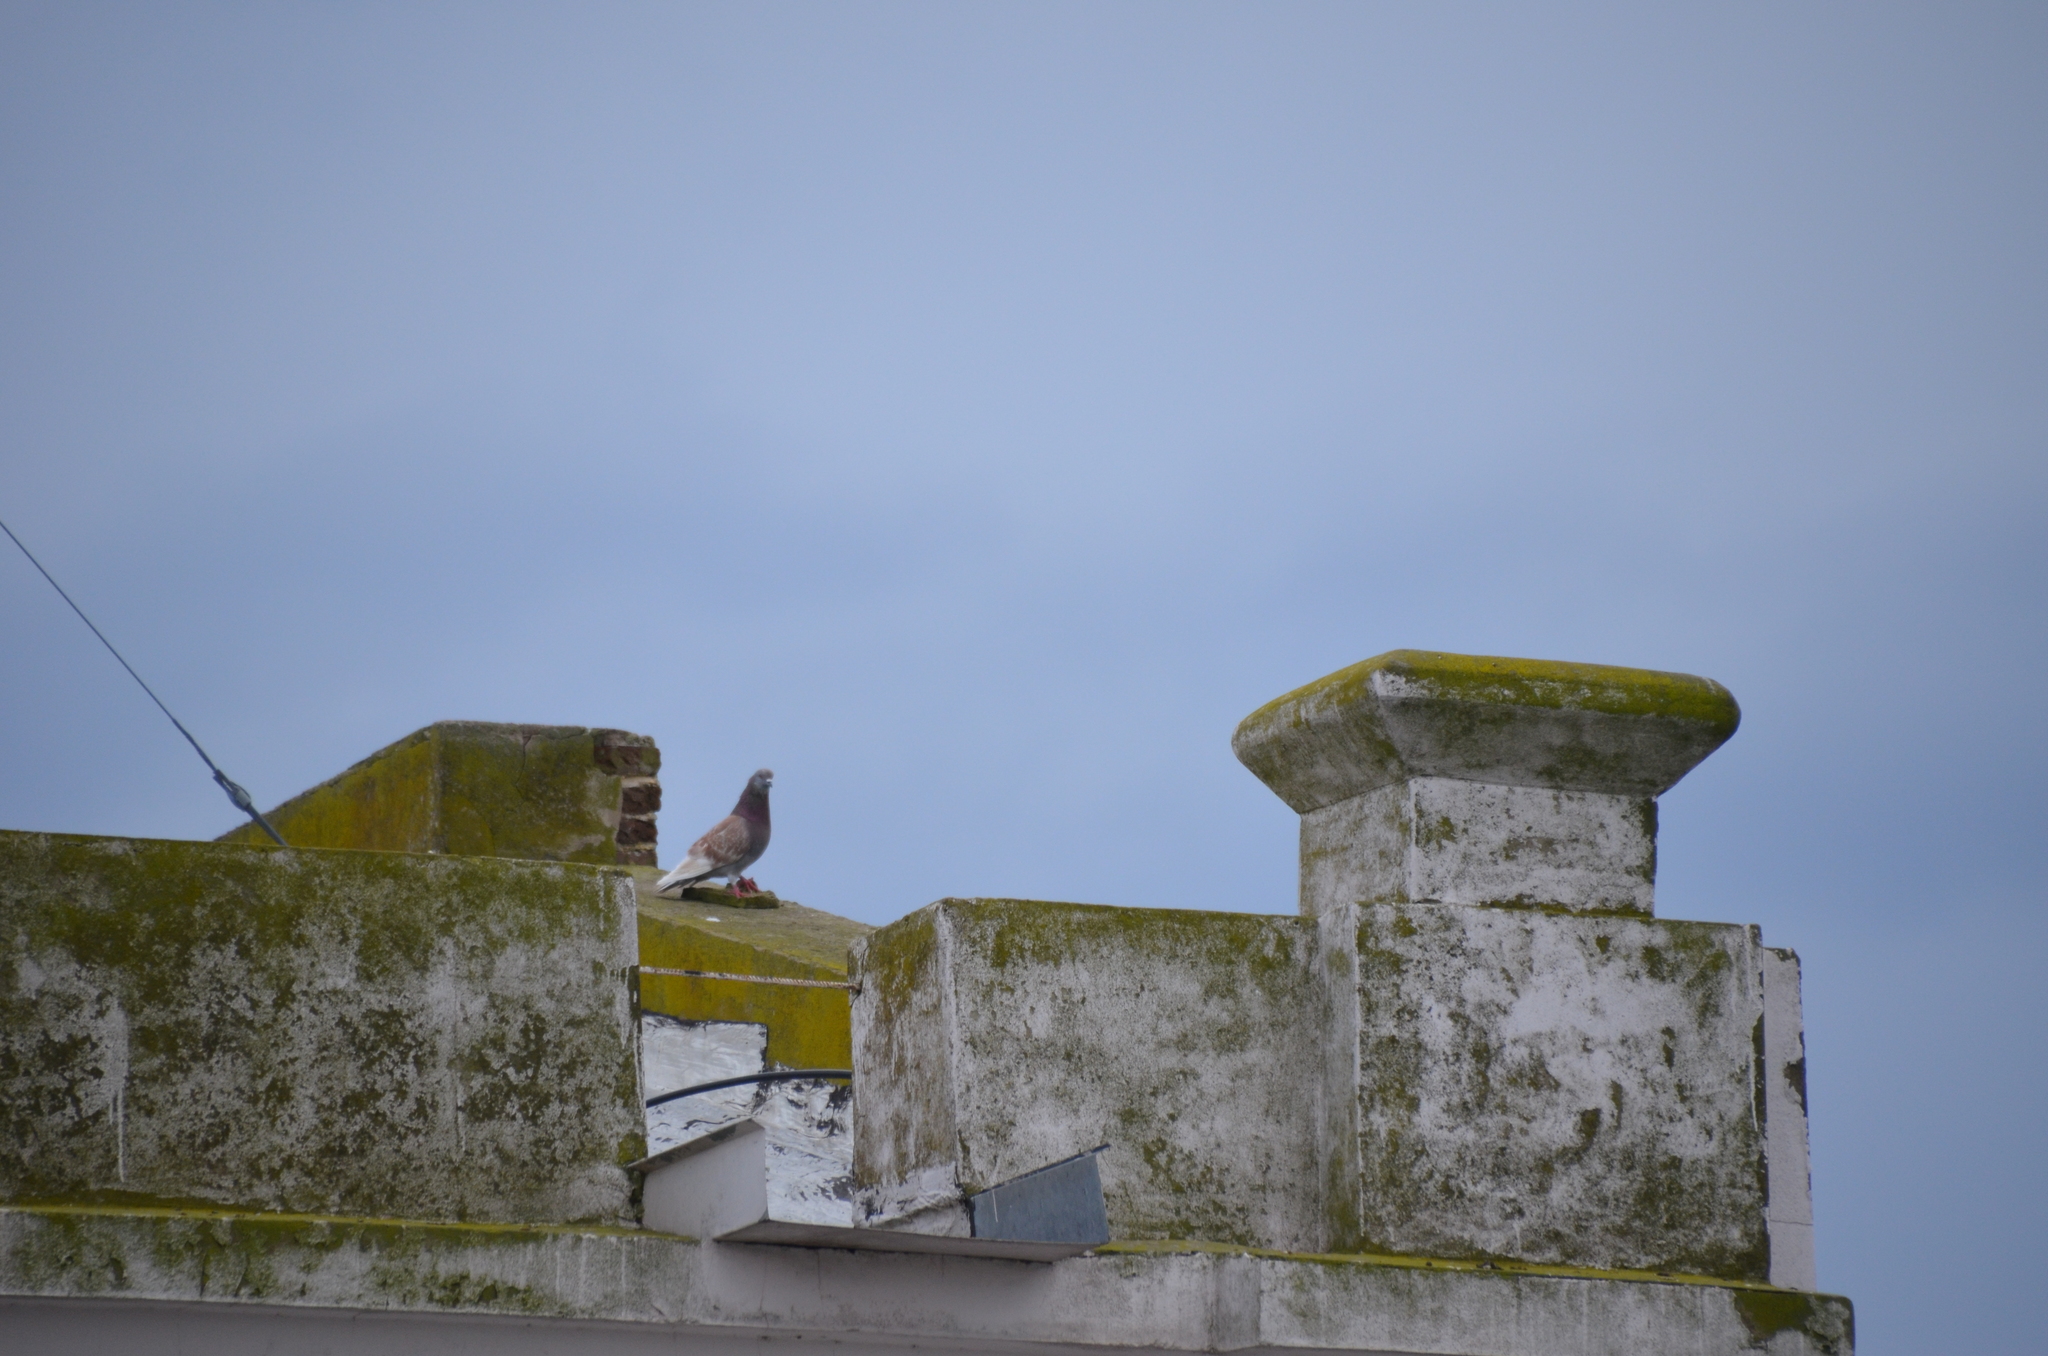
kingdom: Animalia
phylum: Chordata
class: Aves
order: Columbiformes
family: Columbidae
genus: Columba
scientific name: Columba livia
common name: Rock pigeon
